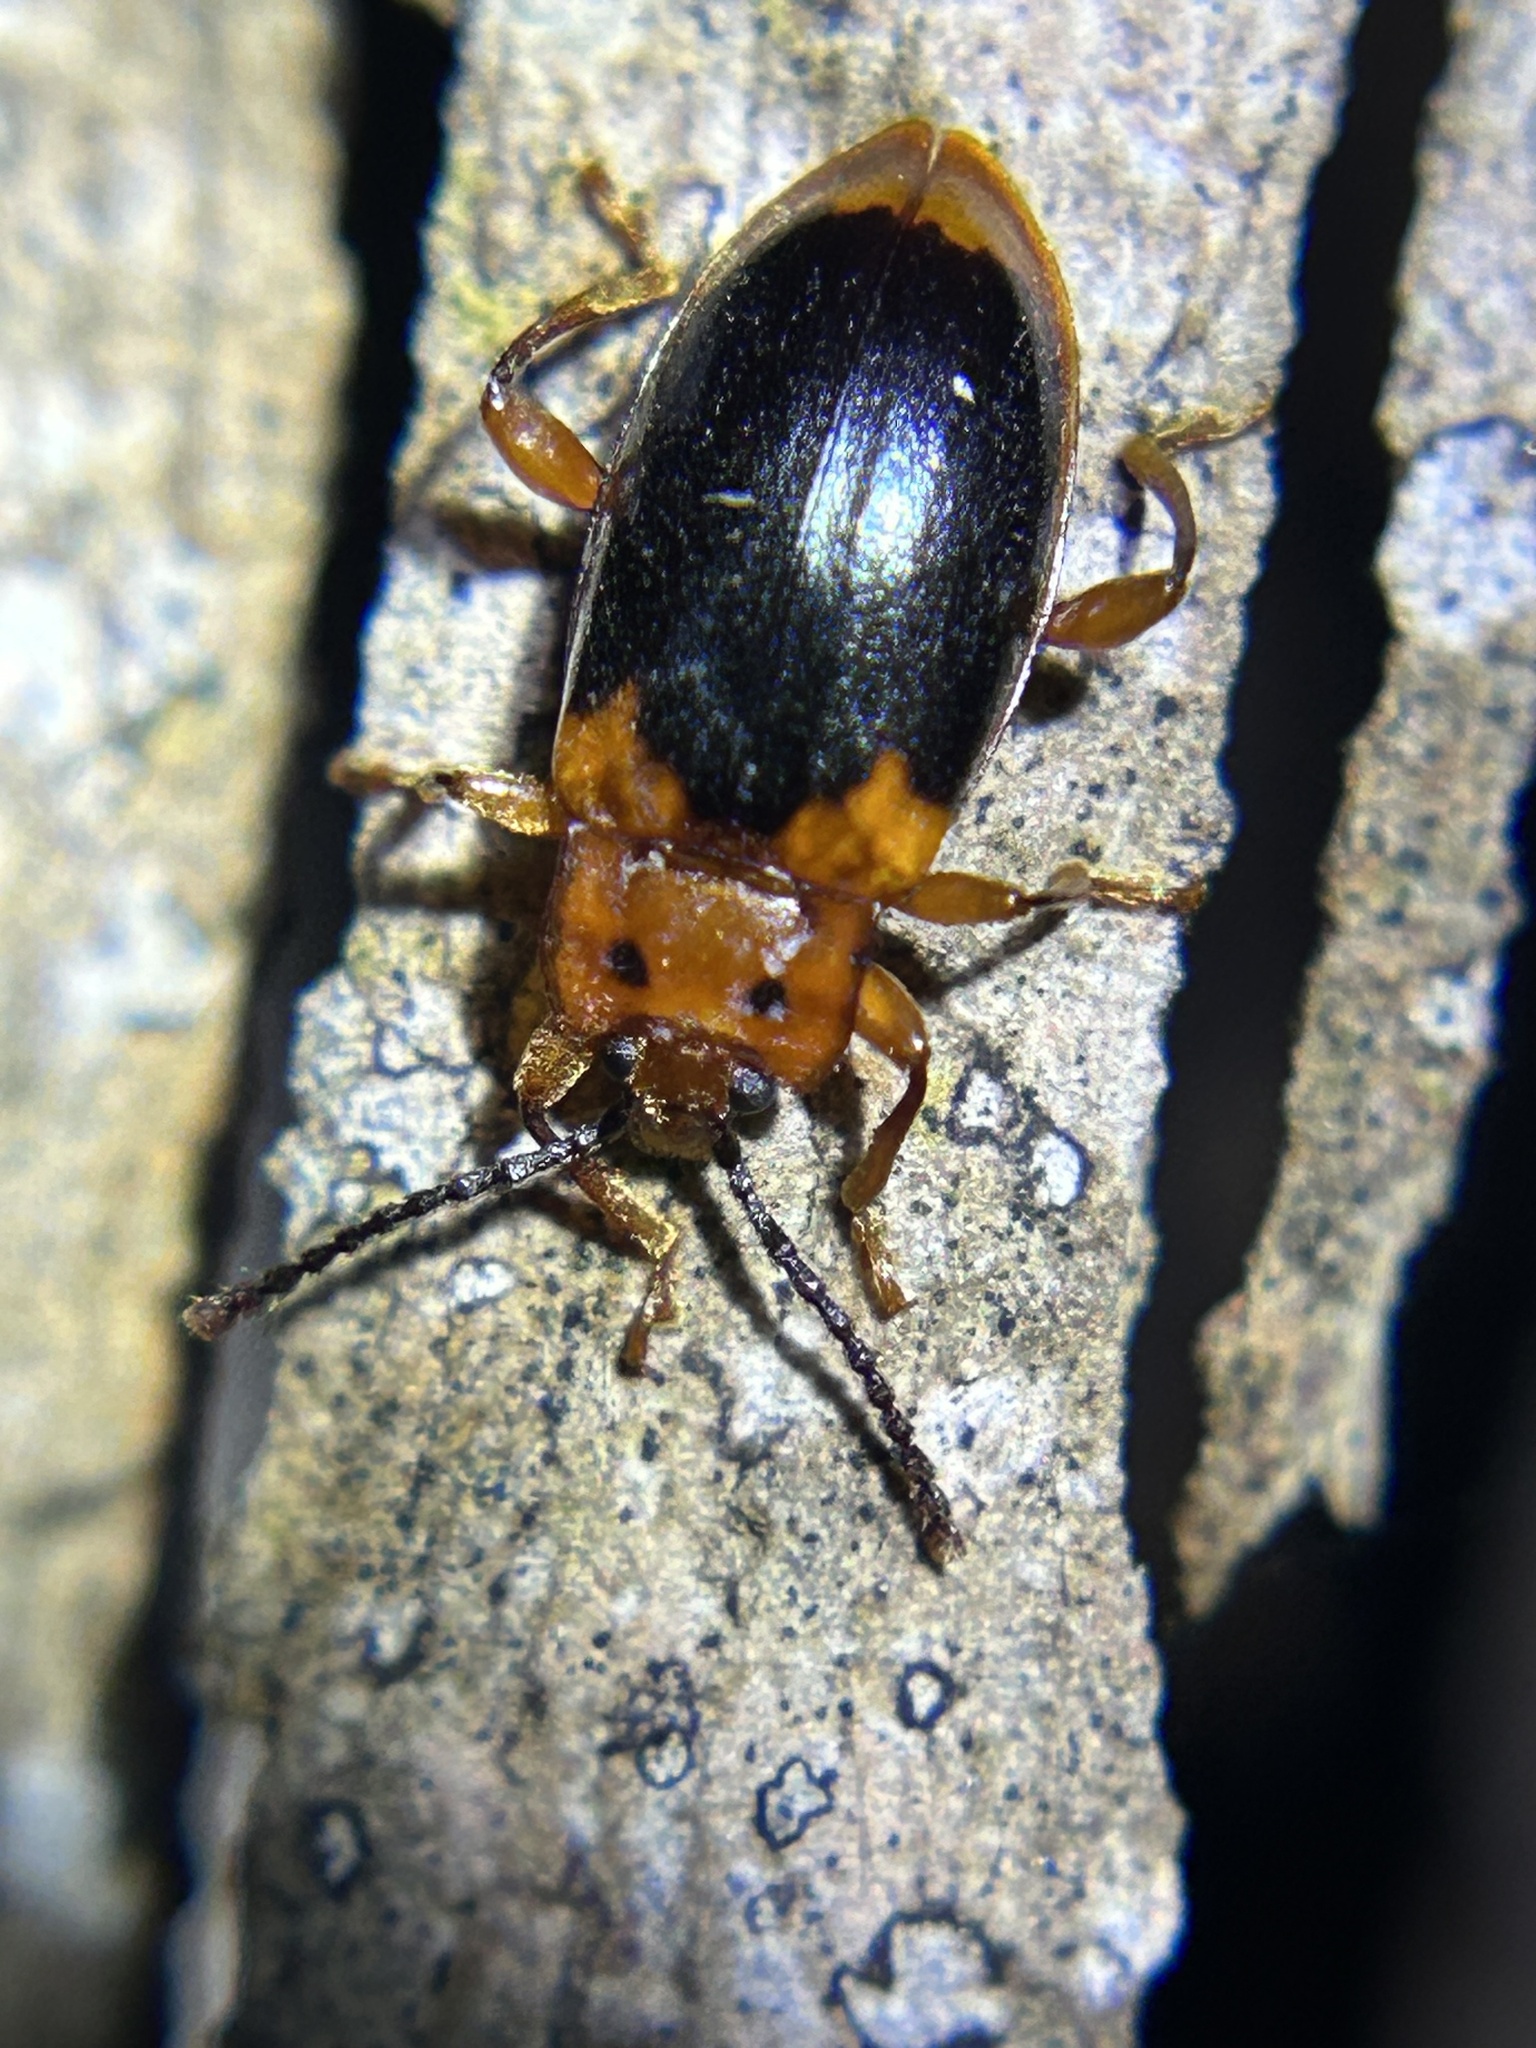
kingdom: Animalia
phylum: Arthropoda
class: Insecta
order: Coleoptera
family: Endomychidae
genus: Aphorista
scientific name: Aphorista laeta
